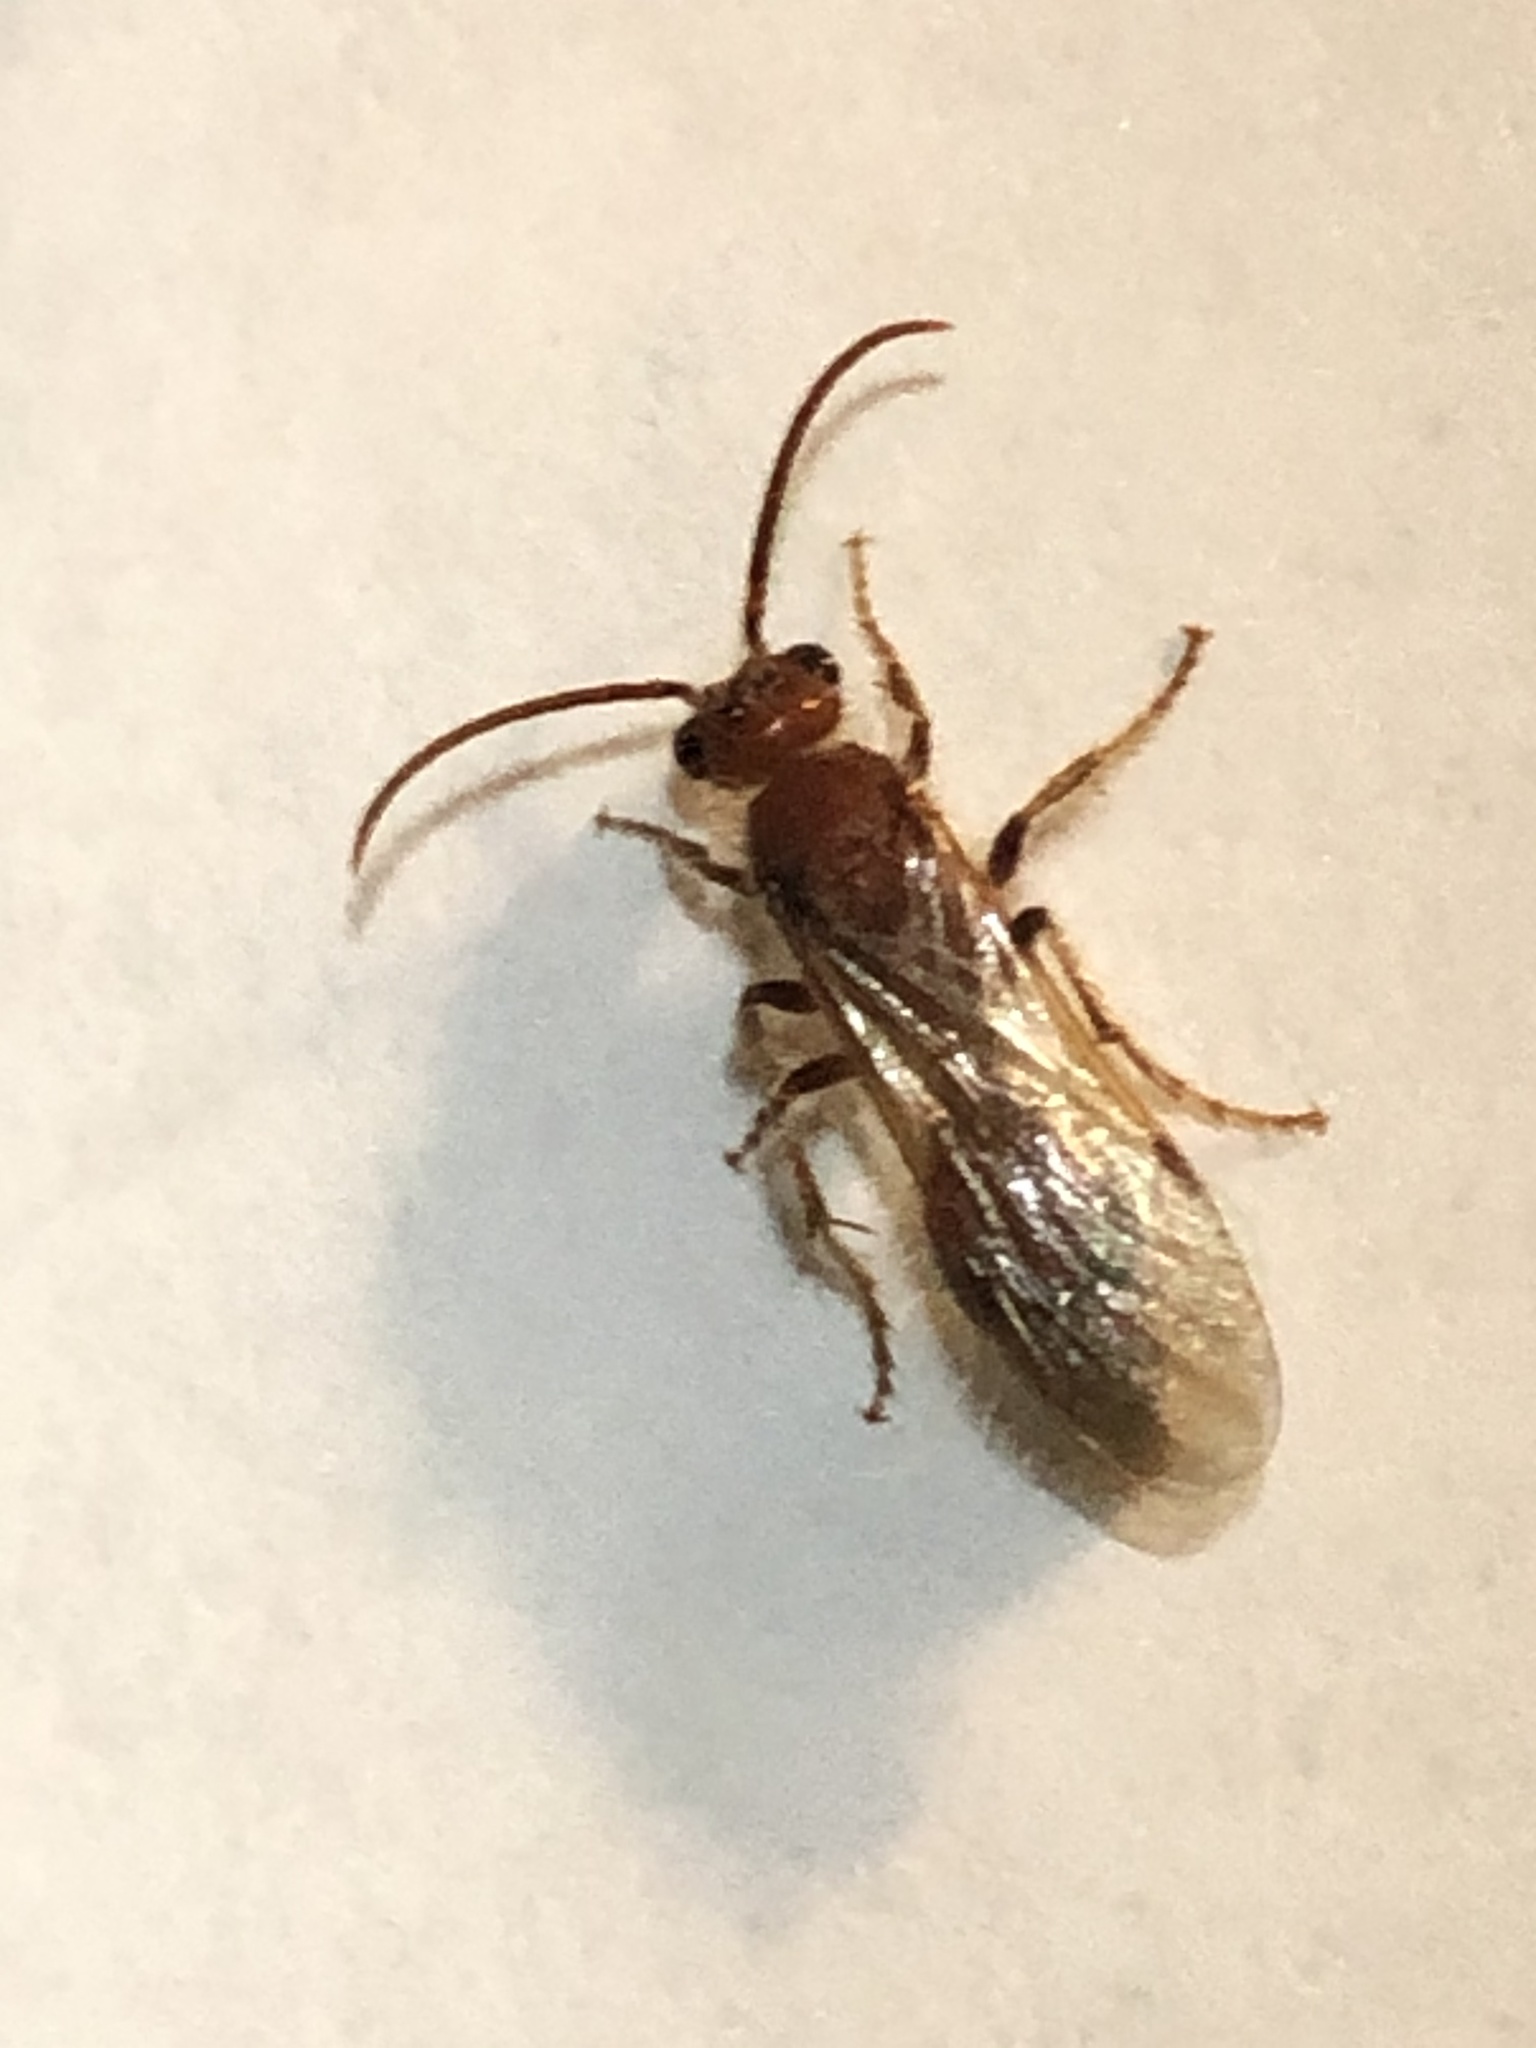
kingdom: Animalia
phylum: Arthropoda
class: Insecta
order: Hymenoptera
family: Mutillidae
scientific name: Mutillidae
